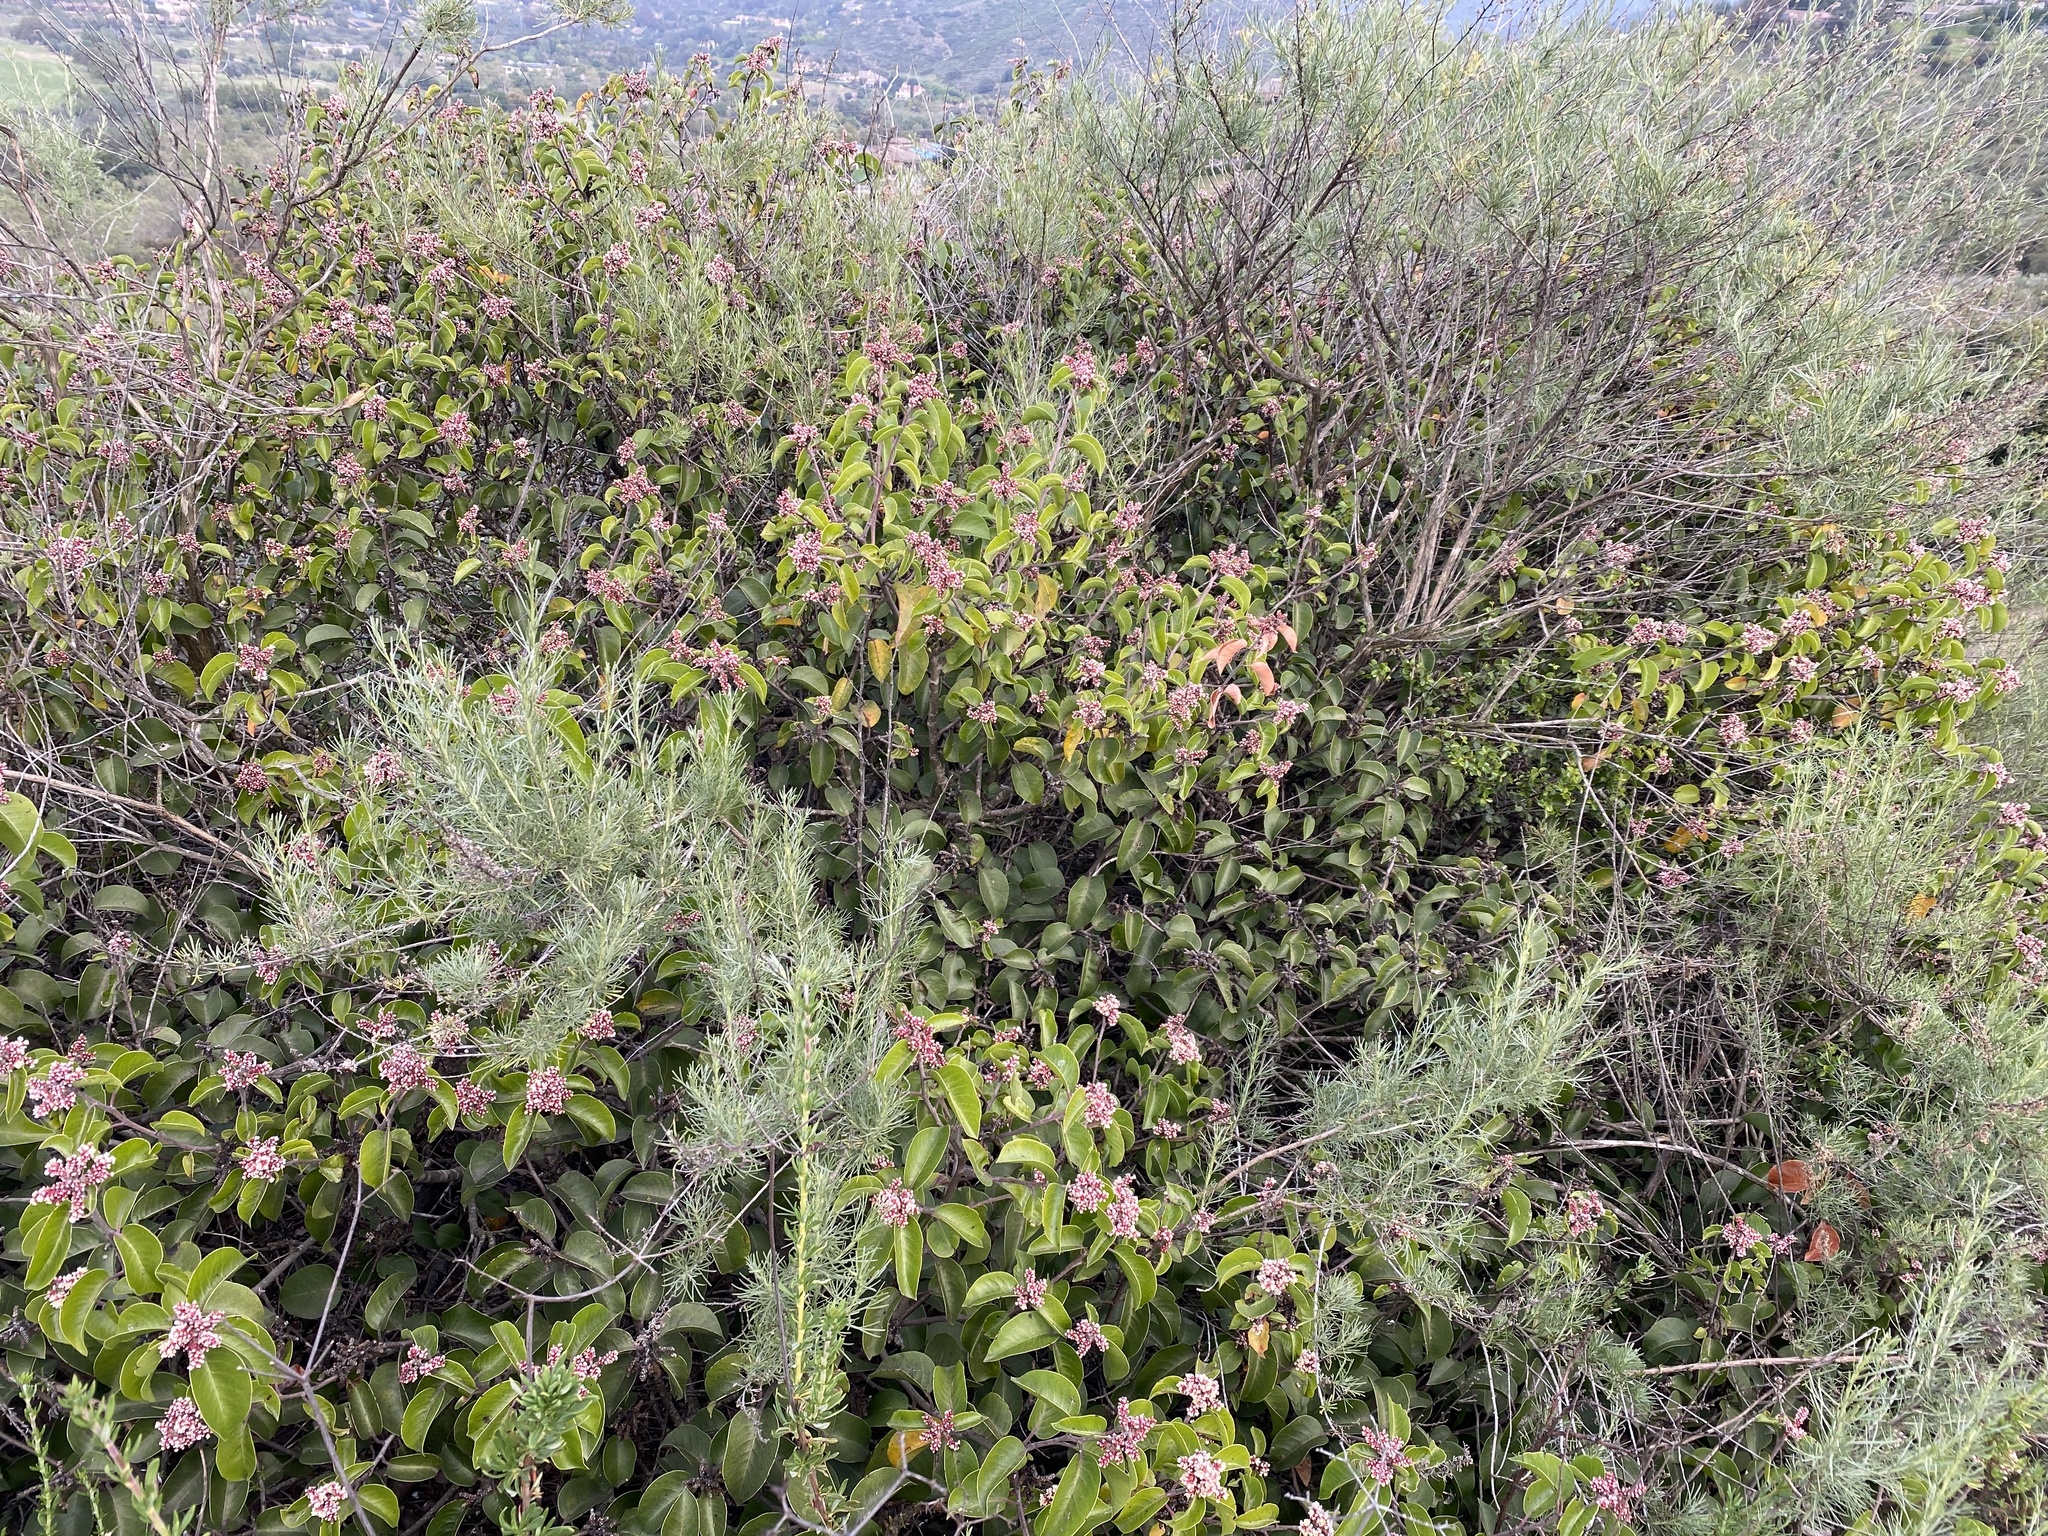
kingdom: Plantae
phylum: Tracheophyta
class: Magnoliopsida
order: Sapindales
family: Anacardiaceae
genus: Rhus
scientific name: Rhus ovata
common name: Sugar sumac
